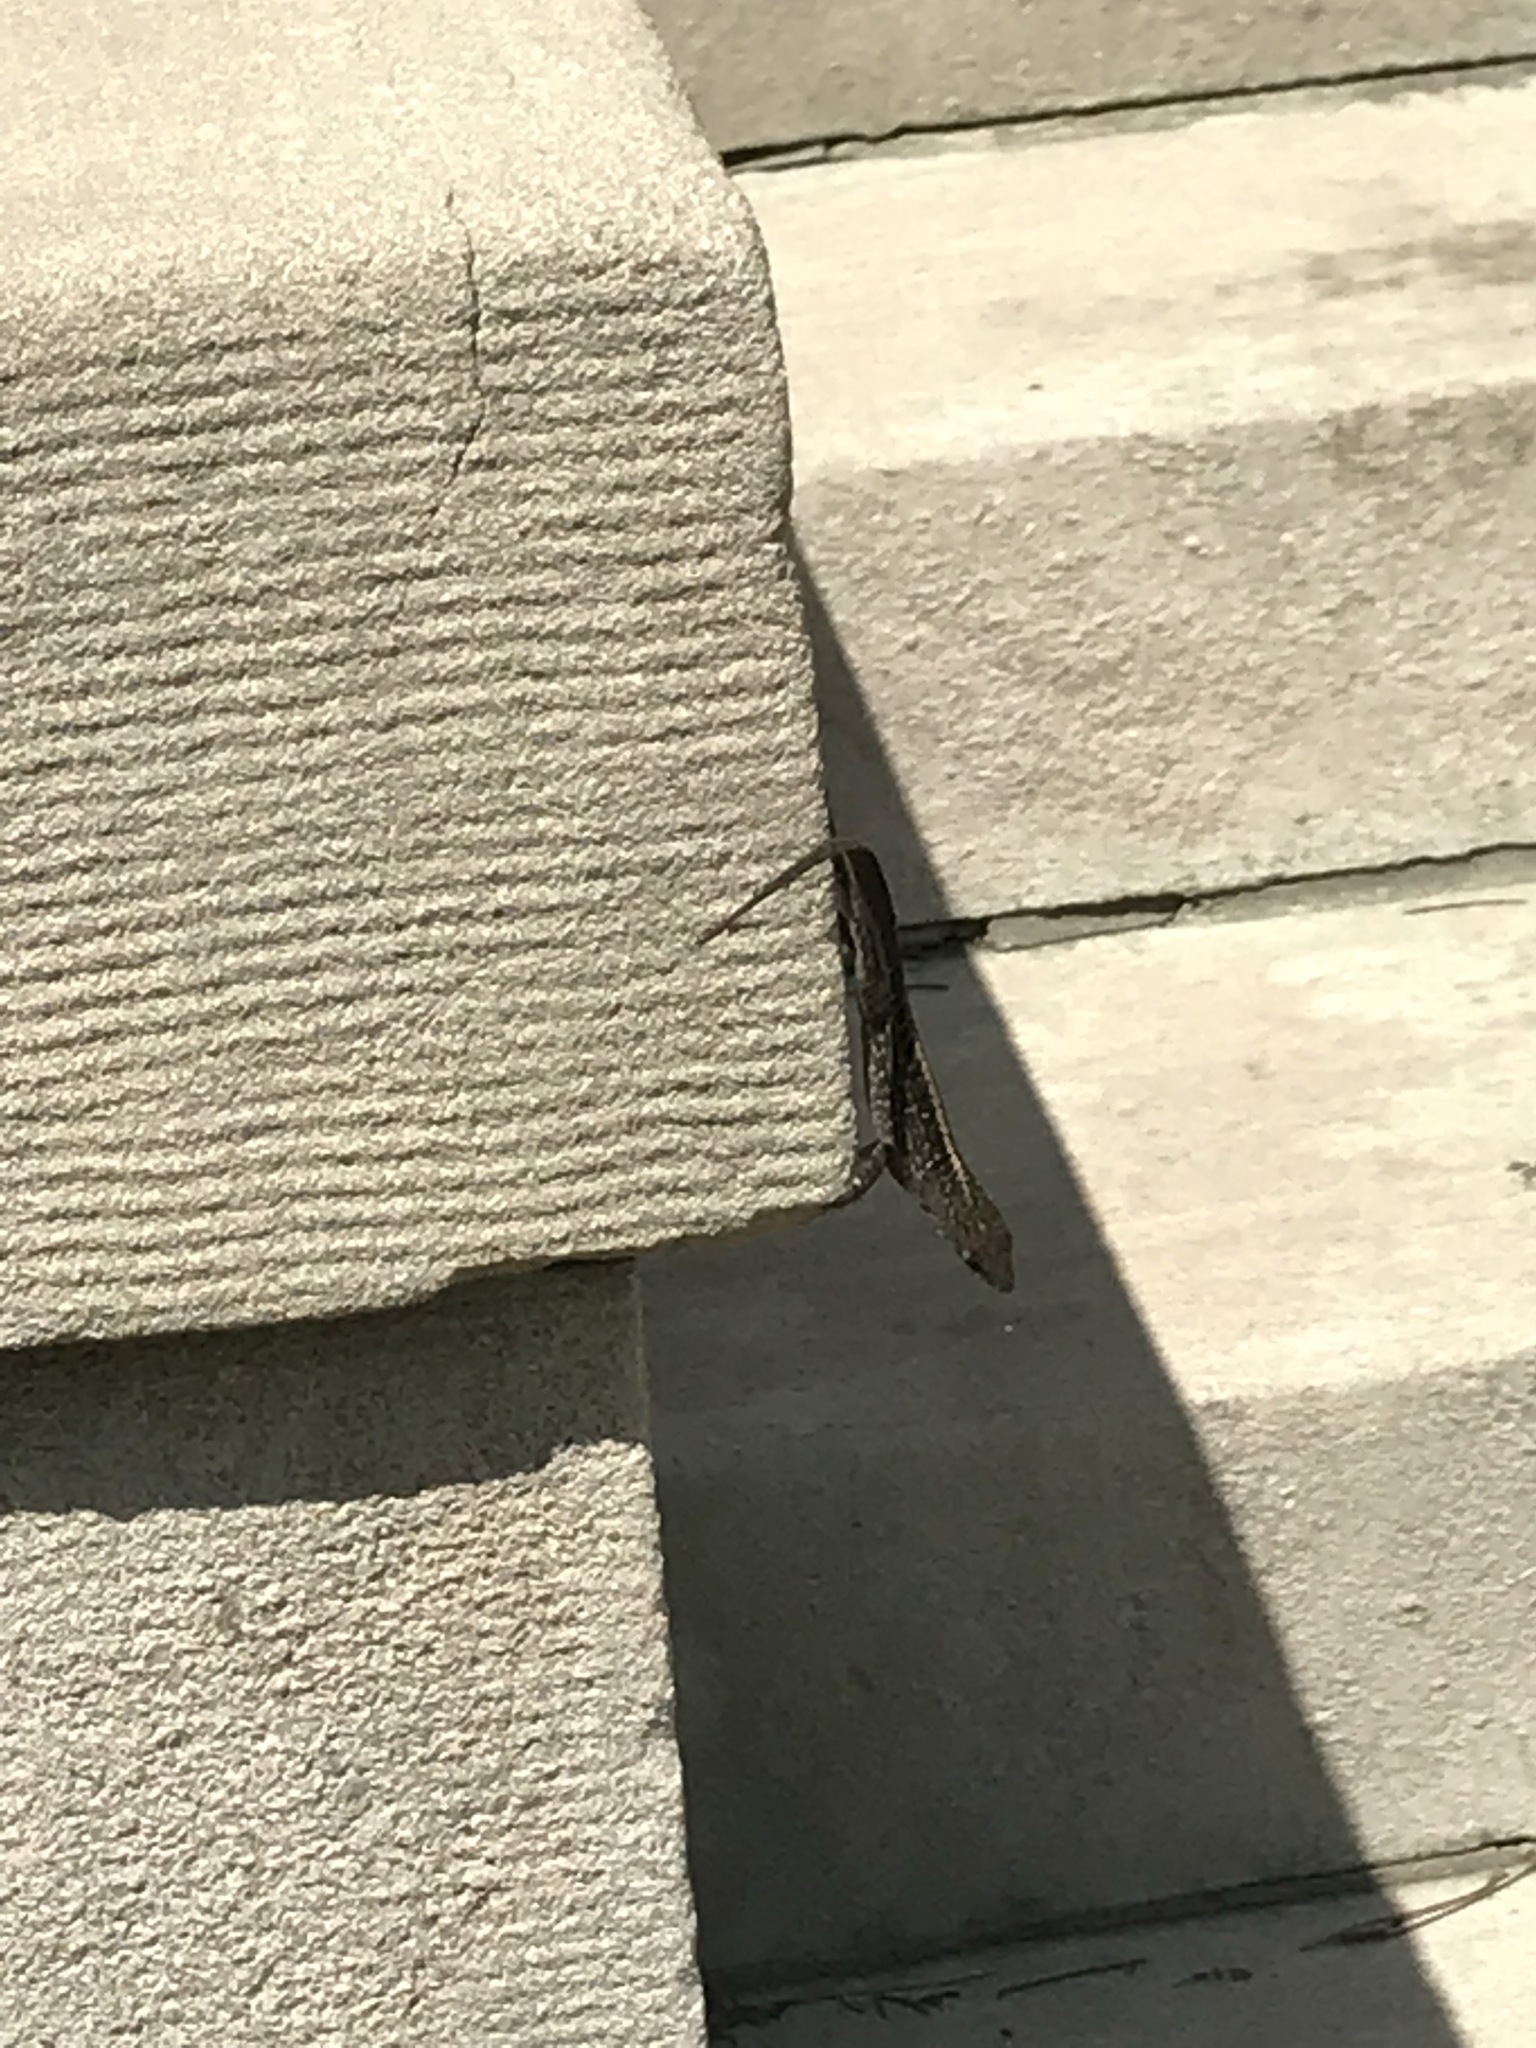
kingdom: Animalia
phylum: Chordata
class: Squamata
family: Dactyloidae
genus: Anolis
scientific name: Anolis sagrei
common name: Brown anole
